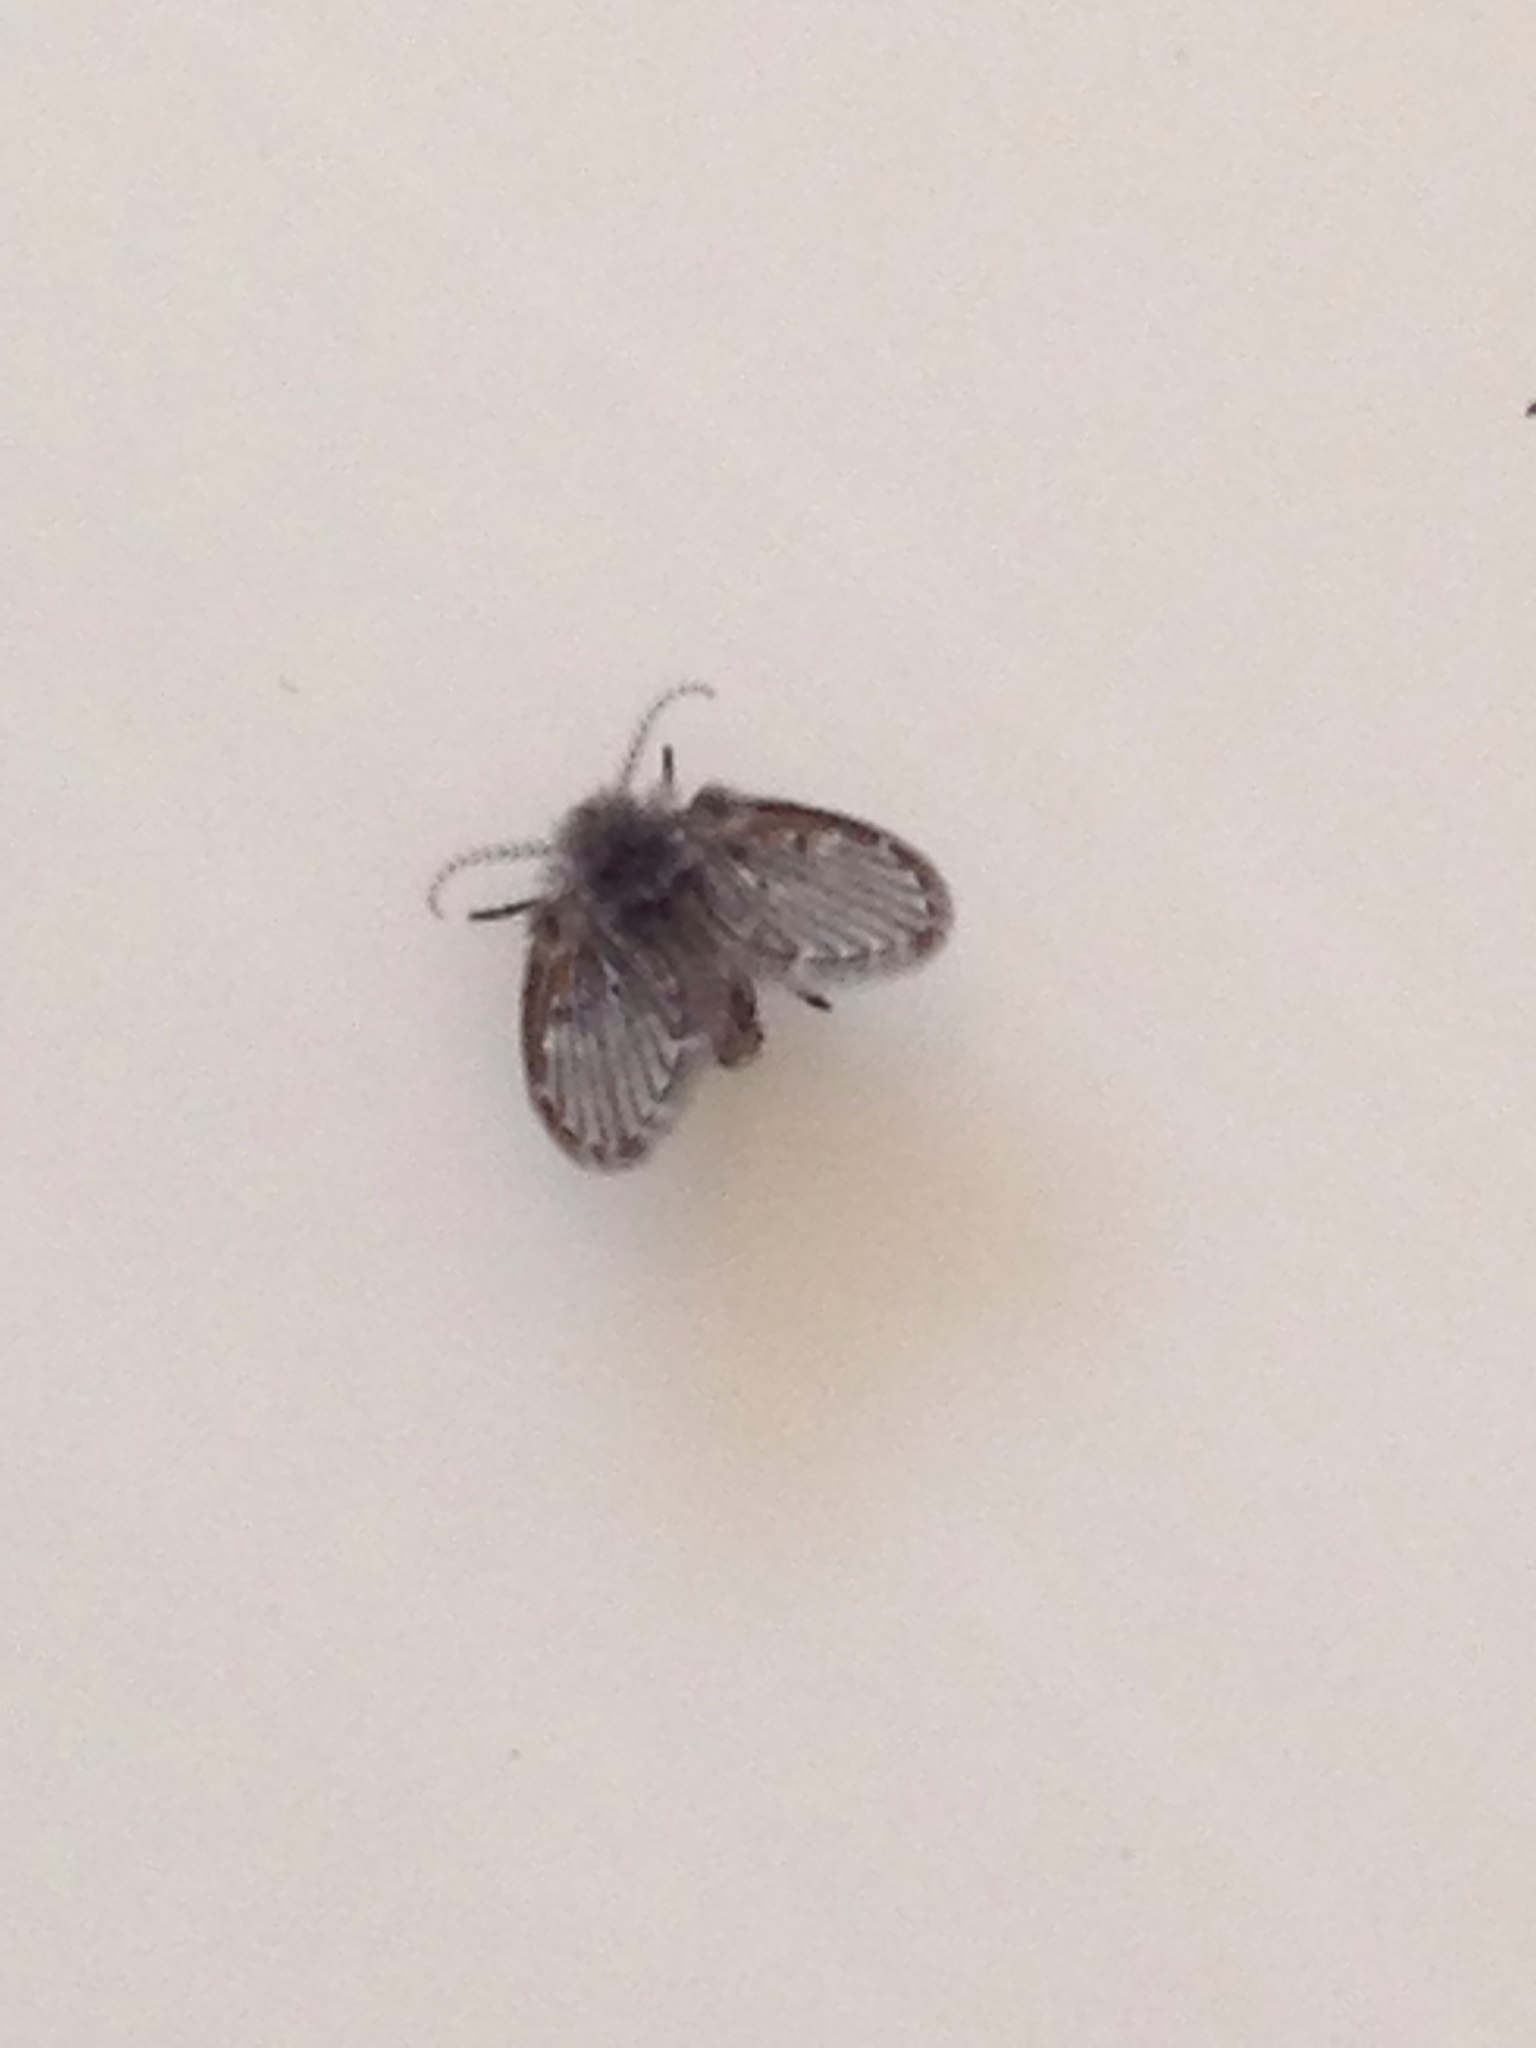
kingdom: Animalia
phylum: Arthropoda
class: Insecta
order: Diptera
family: Psychodidae
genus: Clogmia
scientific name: Clogmia albipunctatus
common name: White-spotted moth fly
